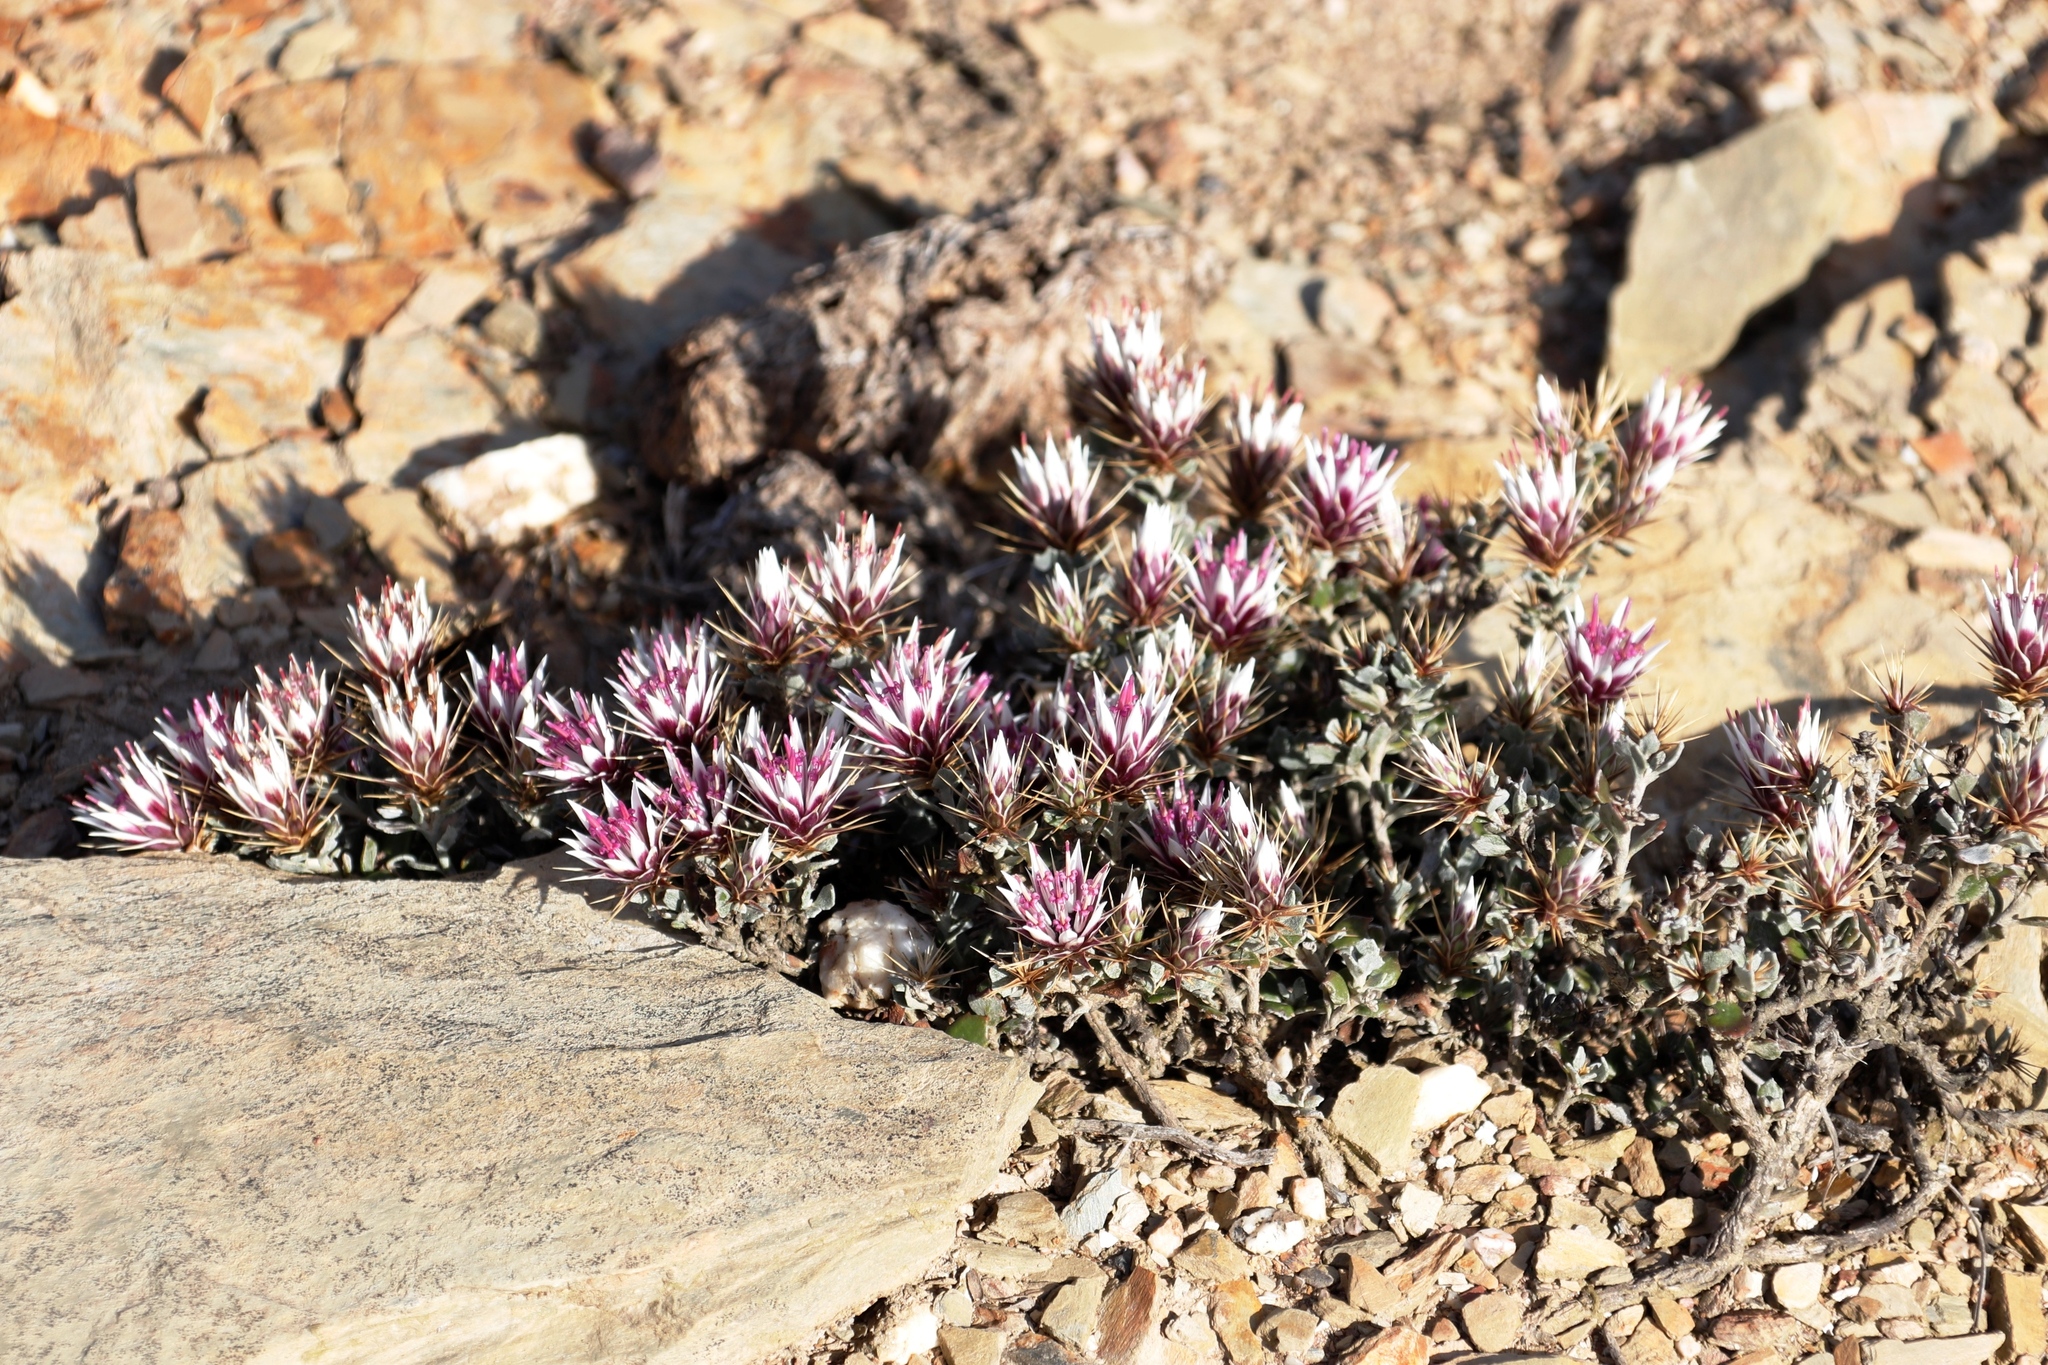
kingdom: Plantae
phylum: Tracheophyta
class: Magnoliopsida
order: Asterales
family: Asteraceae
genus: Macledium
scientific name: Macledium spinosum
